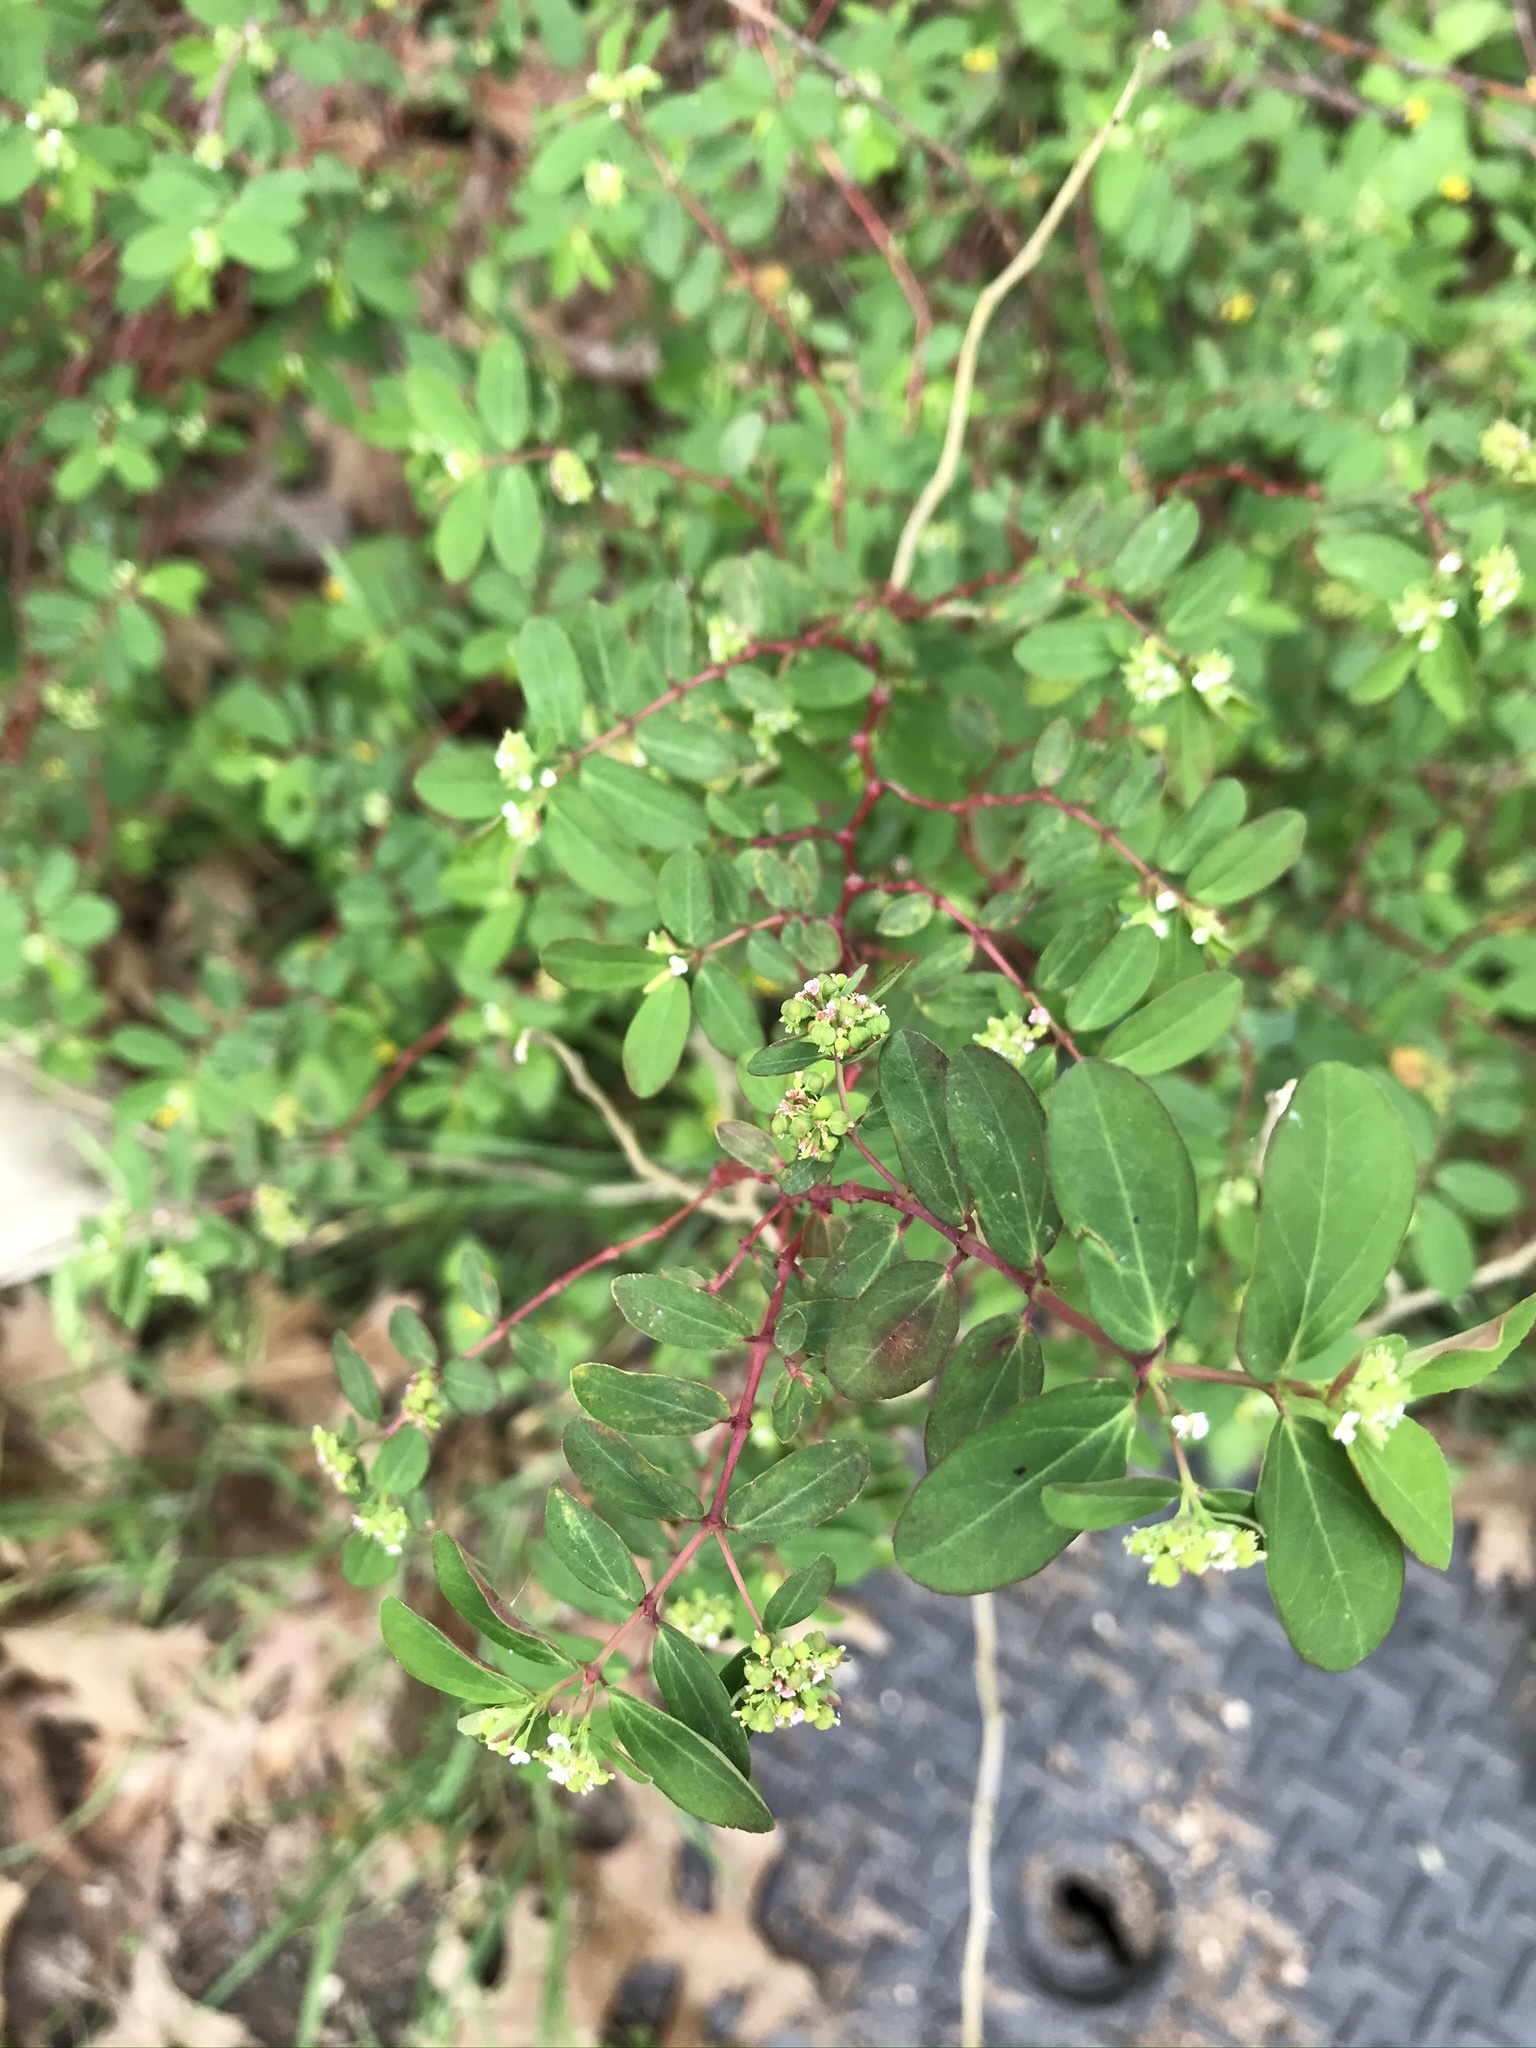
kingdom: Plantae
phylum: Tracheophyta
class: Magnoliopsida
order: Malpighiales
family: Euphorbiaceae
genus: Euphorbia
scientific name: Euphorbia hypericifolia
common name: Graceful sandmat
